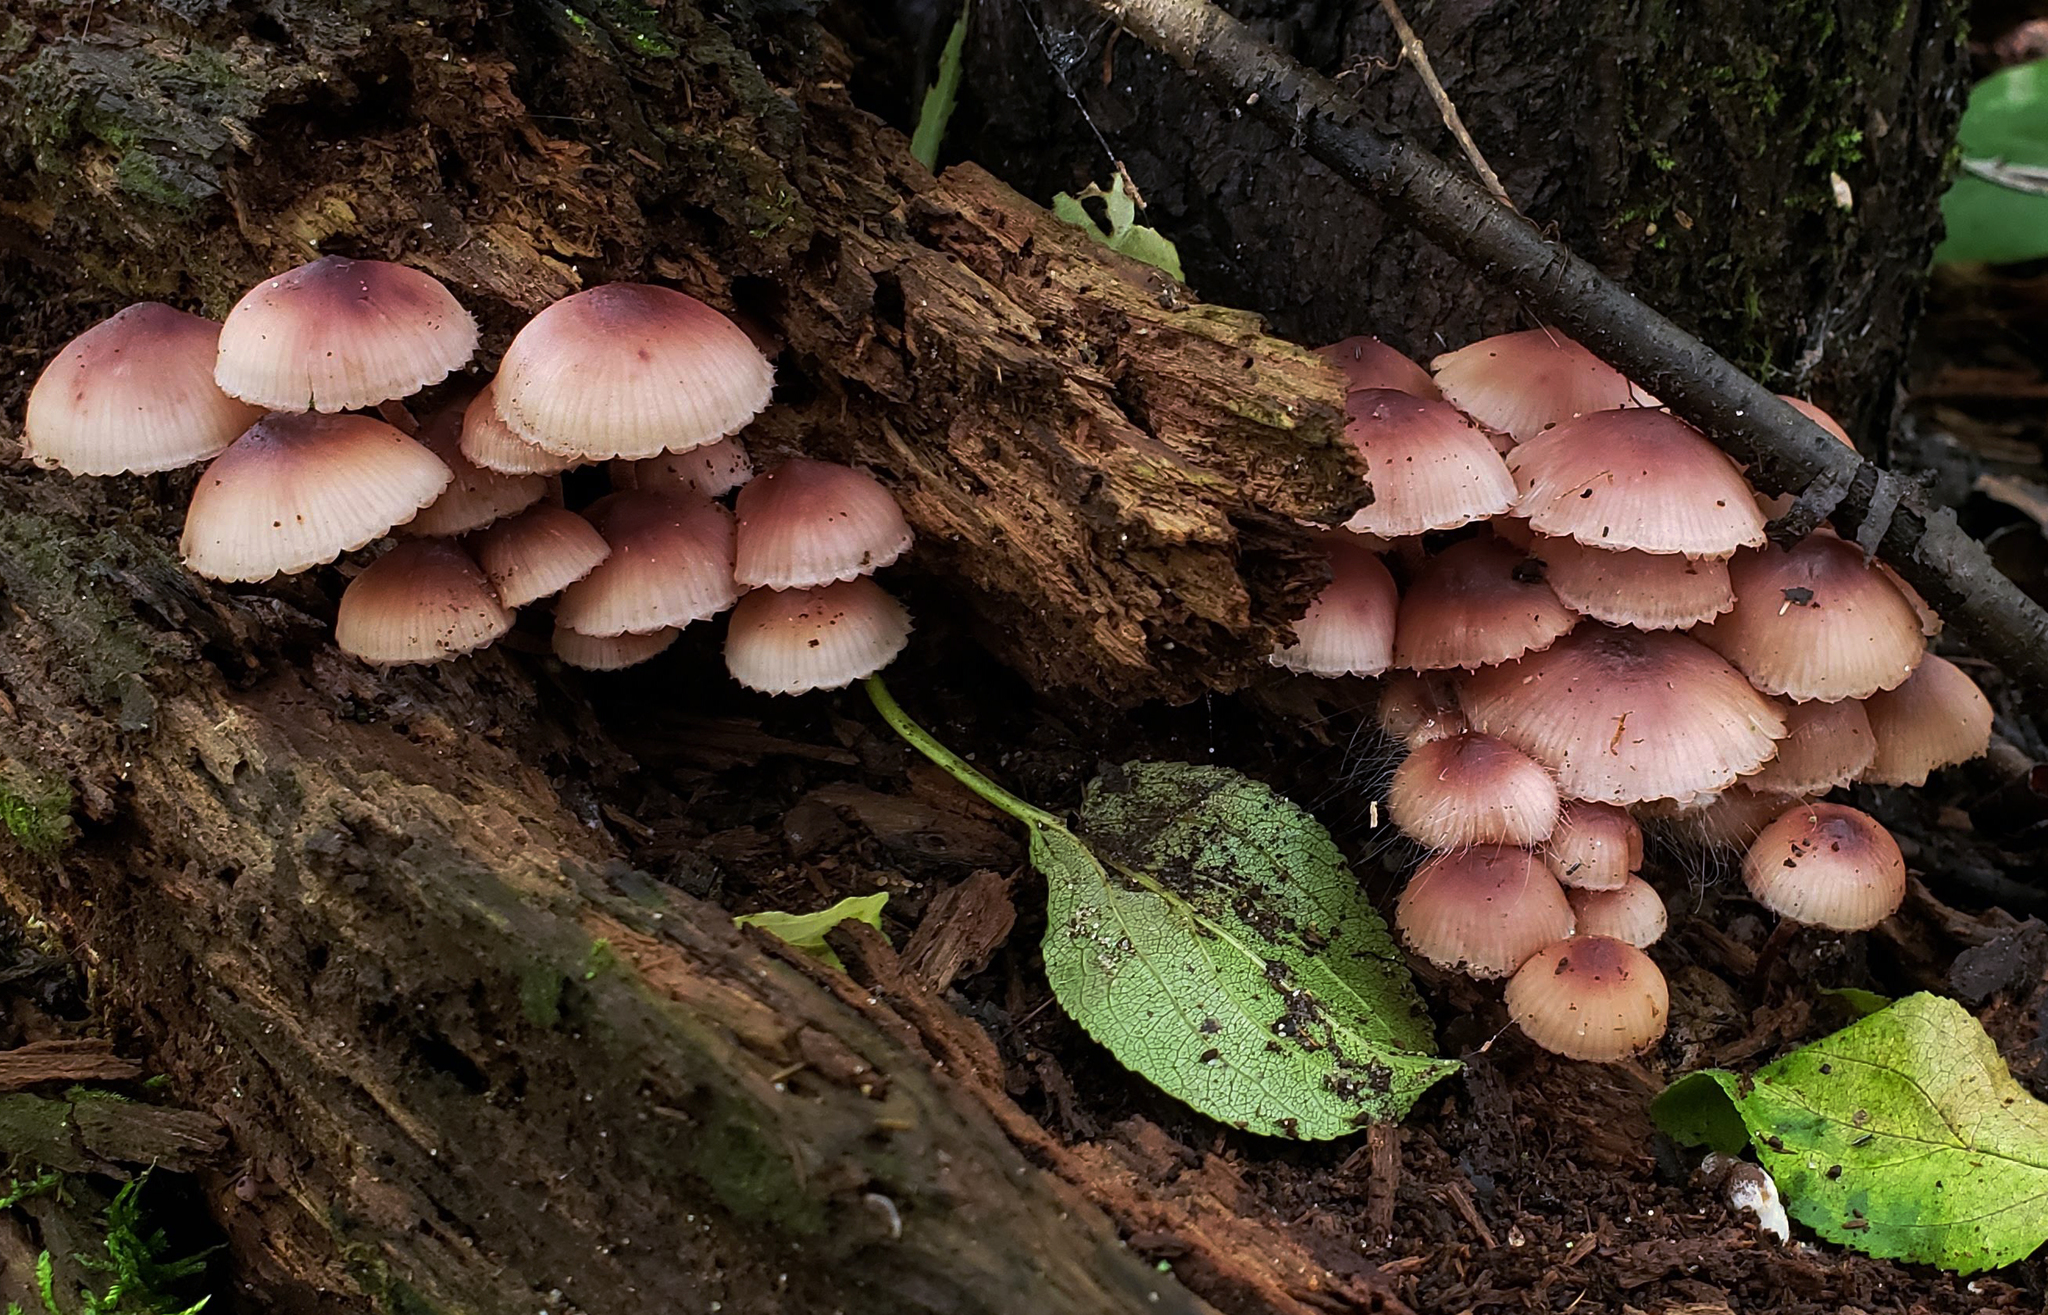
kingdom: Fungi
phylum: Basidiomycota
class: Agaricomycetes
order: Agaricales
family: Mycenaceae
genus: Mycena
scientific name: Mycena haematopus
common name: Burgundydrop bonnet
